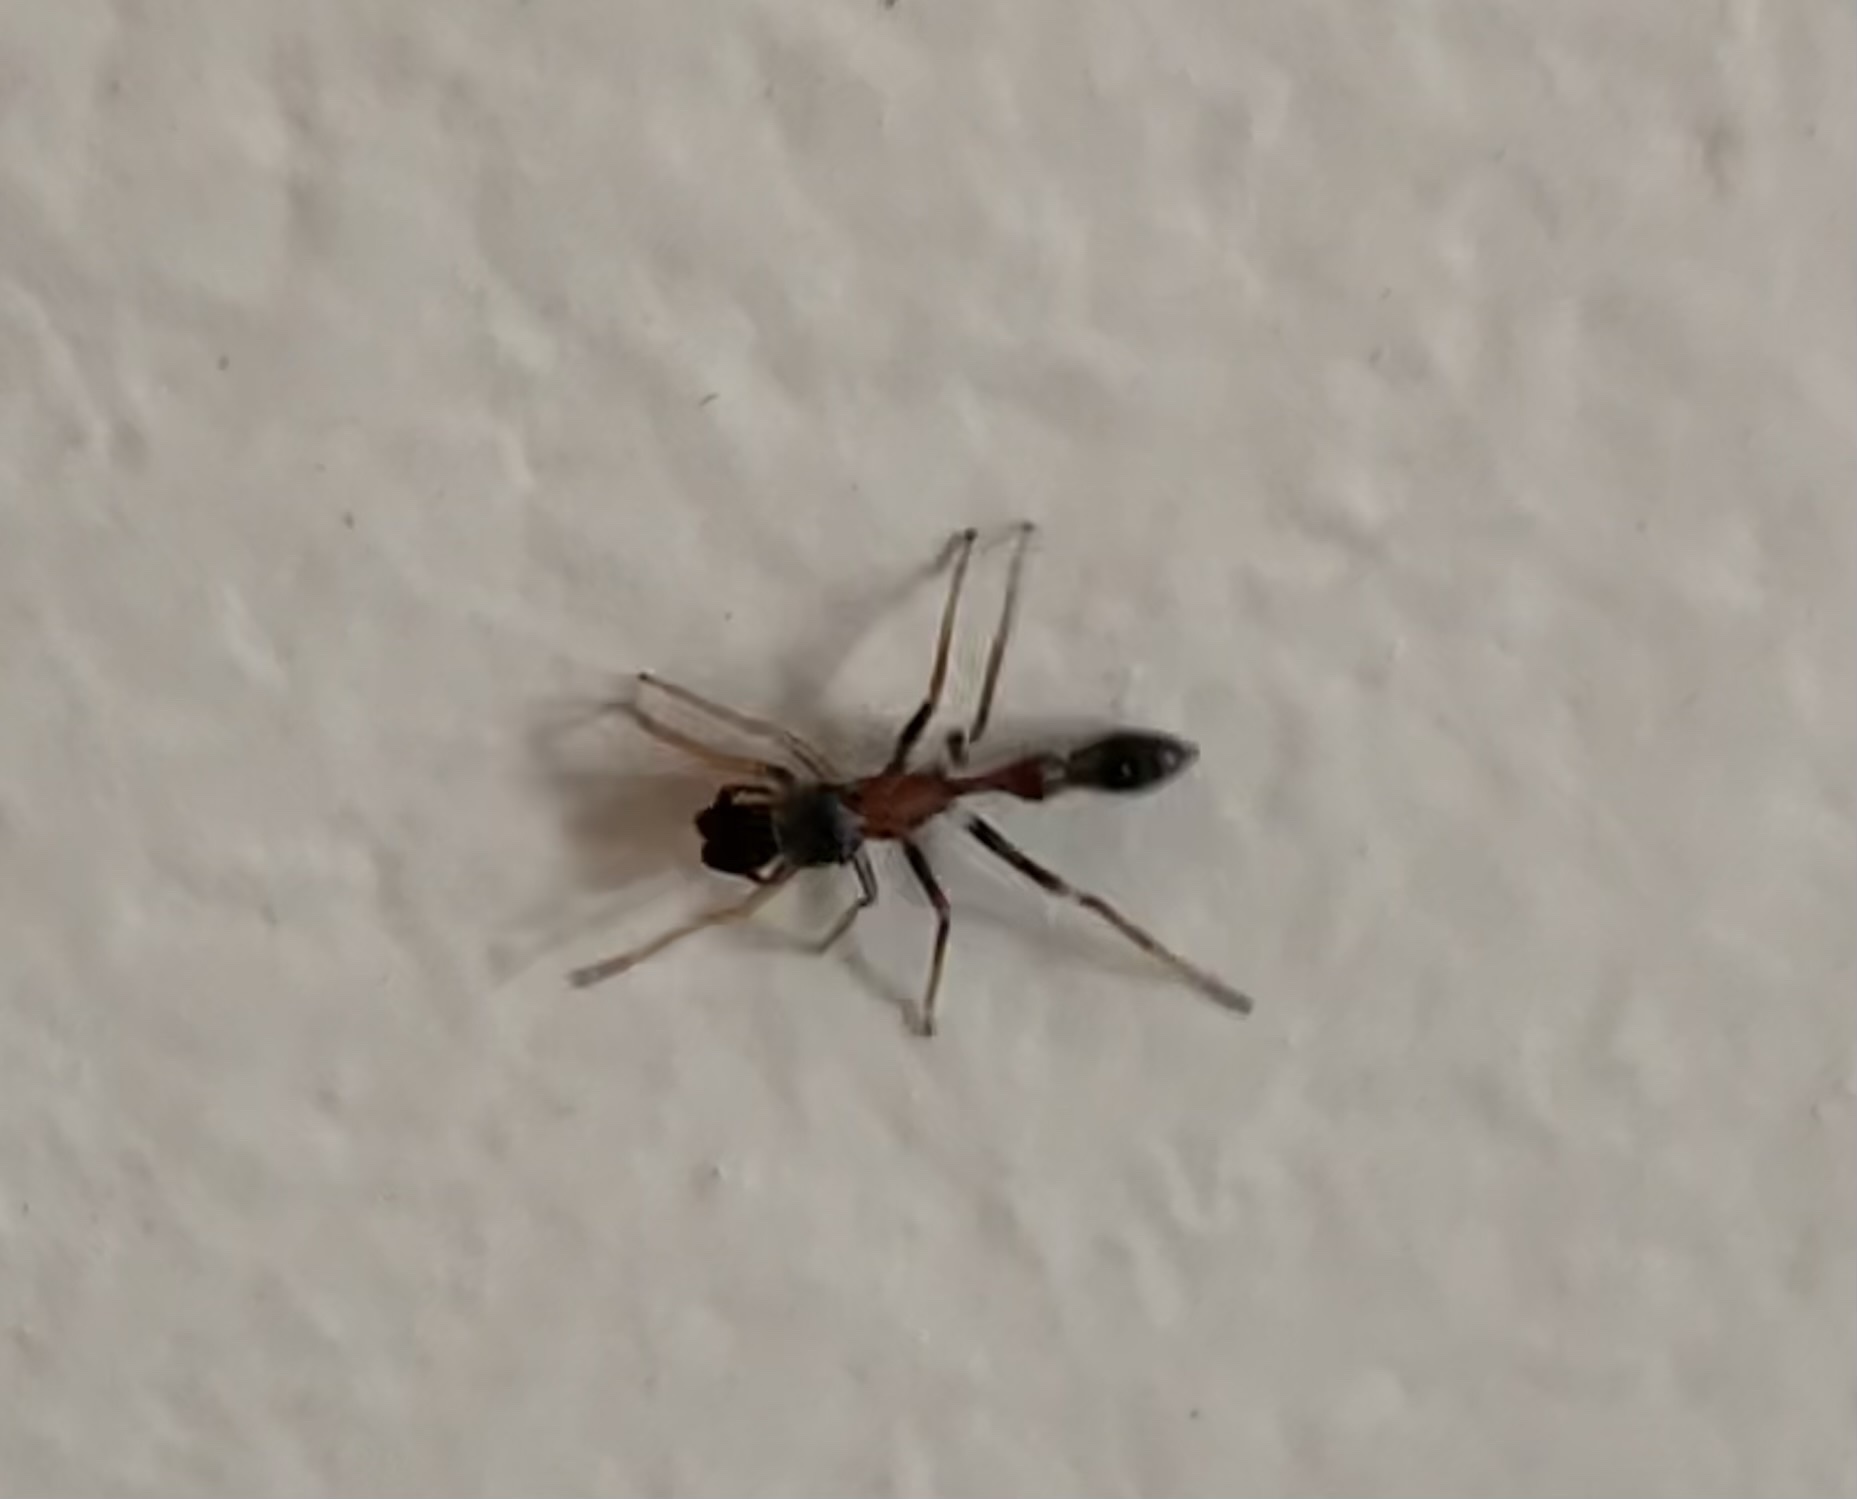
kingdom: Animalia
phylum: Arthropoda
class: Arachnida
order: Araneae
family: Salticidae
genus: Myrmarachne
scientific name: Myrmarachne melanocephala
